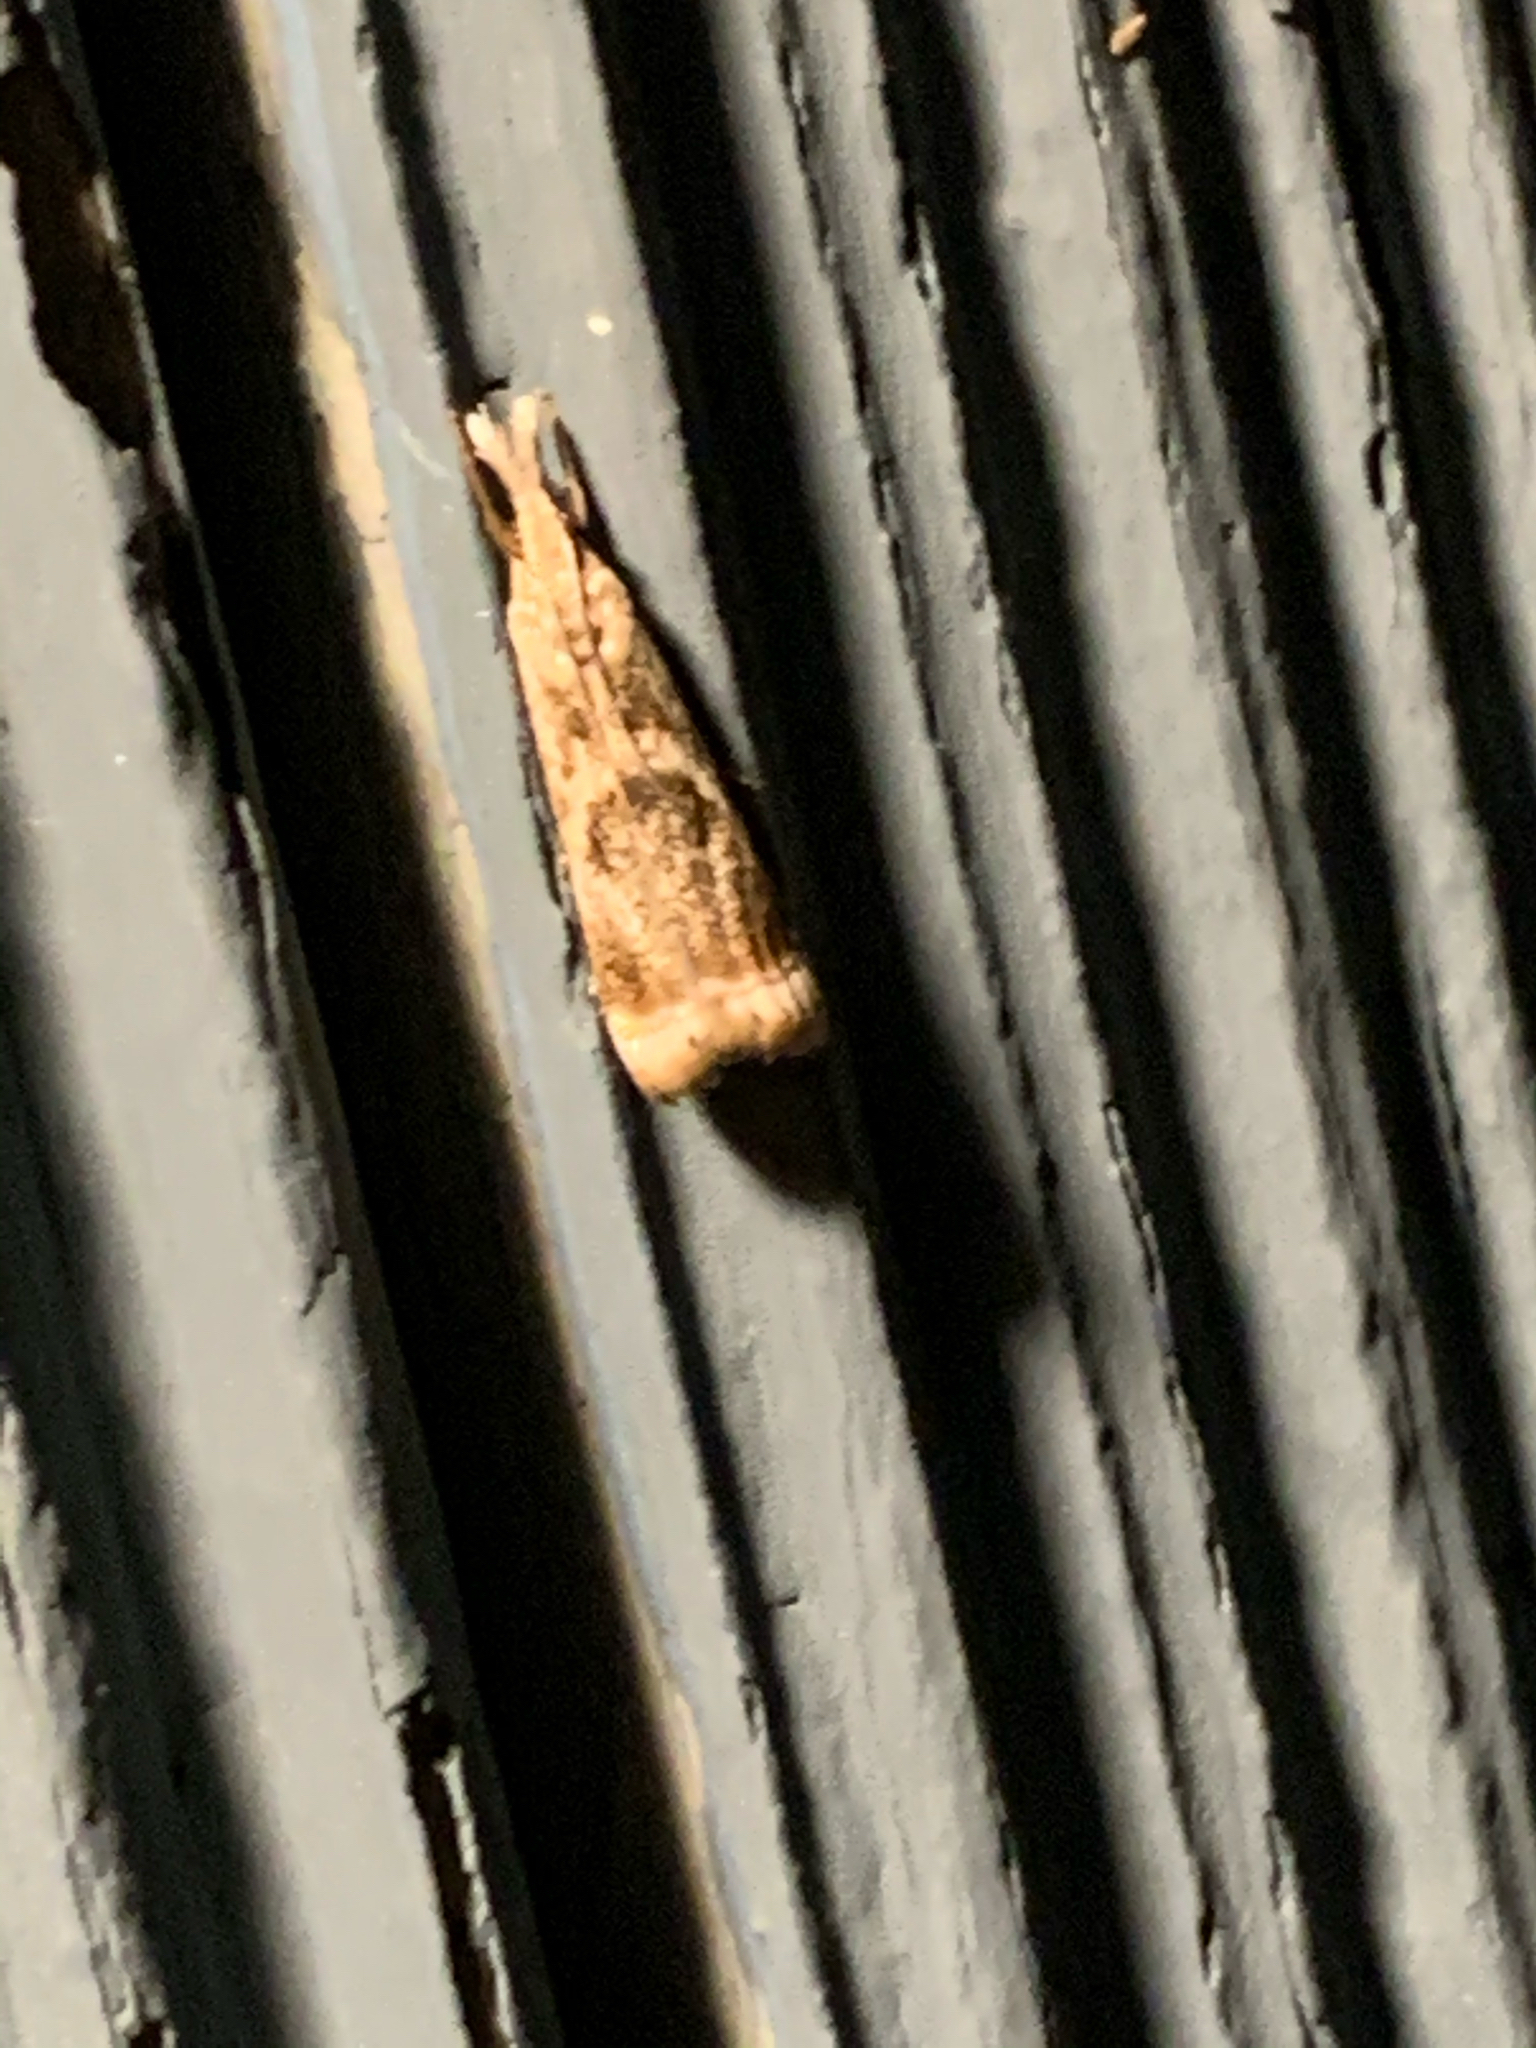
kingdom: Animalia
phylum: Arthropoda
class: Insecta
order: Lepidoptera
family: Crambidae
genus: Microcrambus
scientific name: Microcrambus elegans
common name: Elegant grass-veneer
